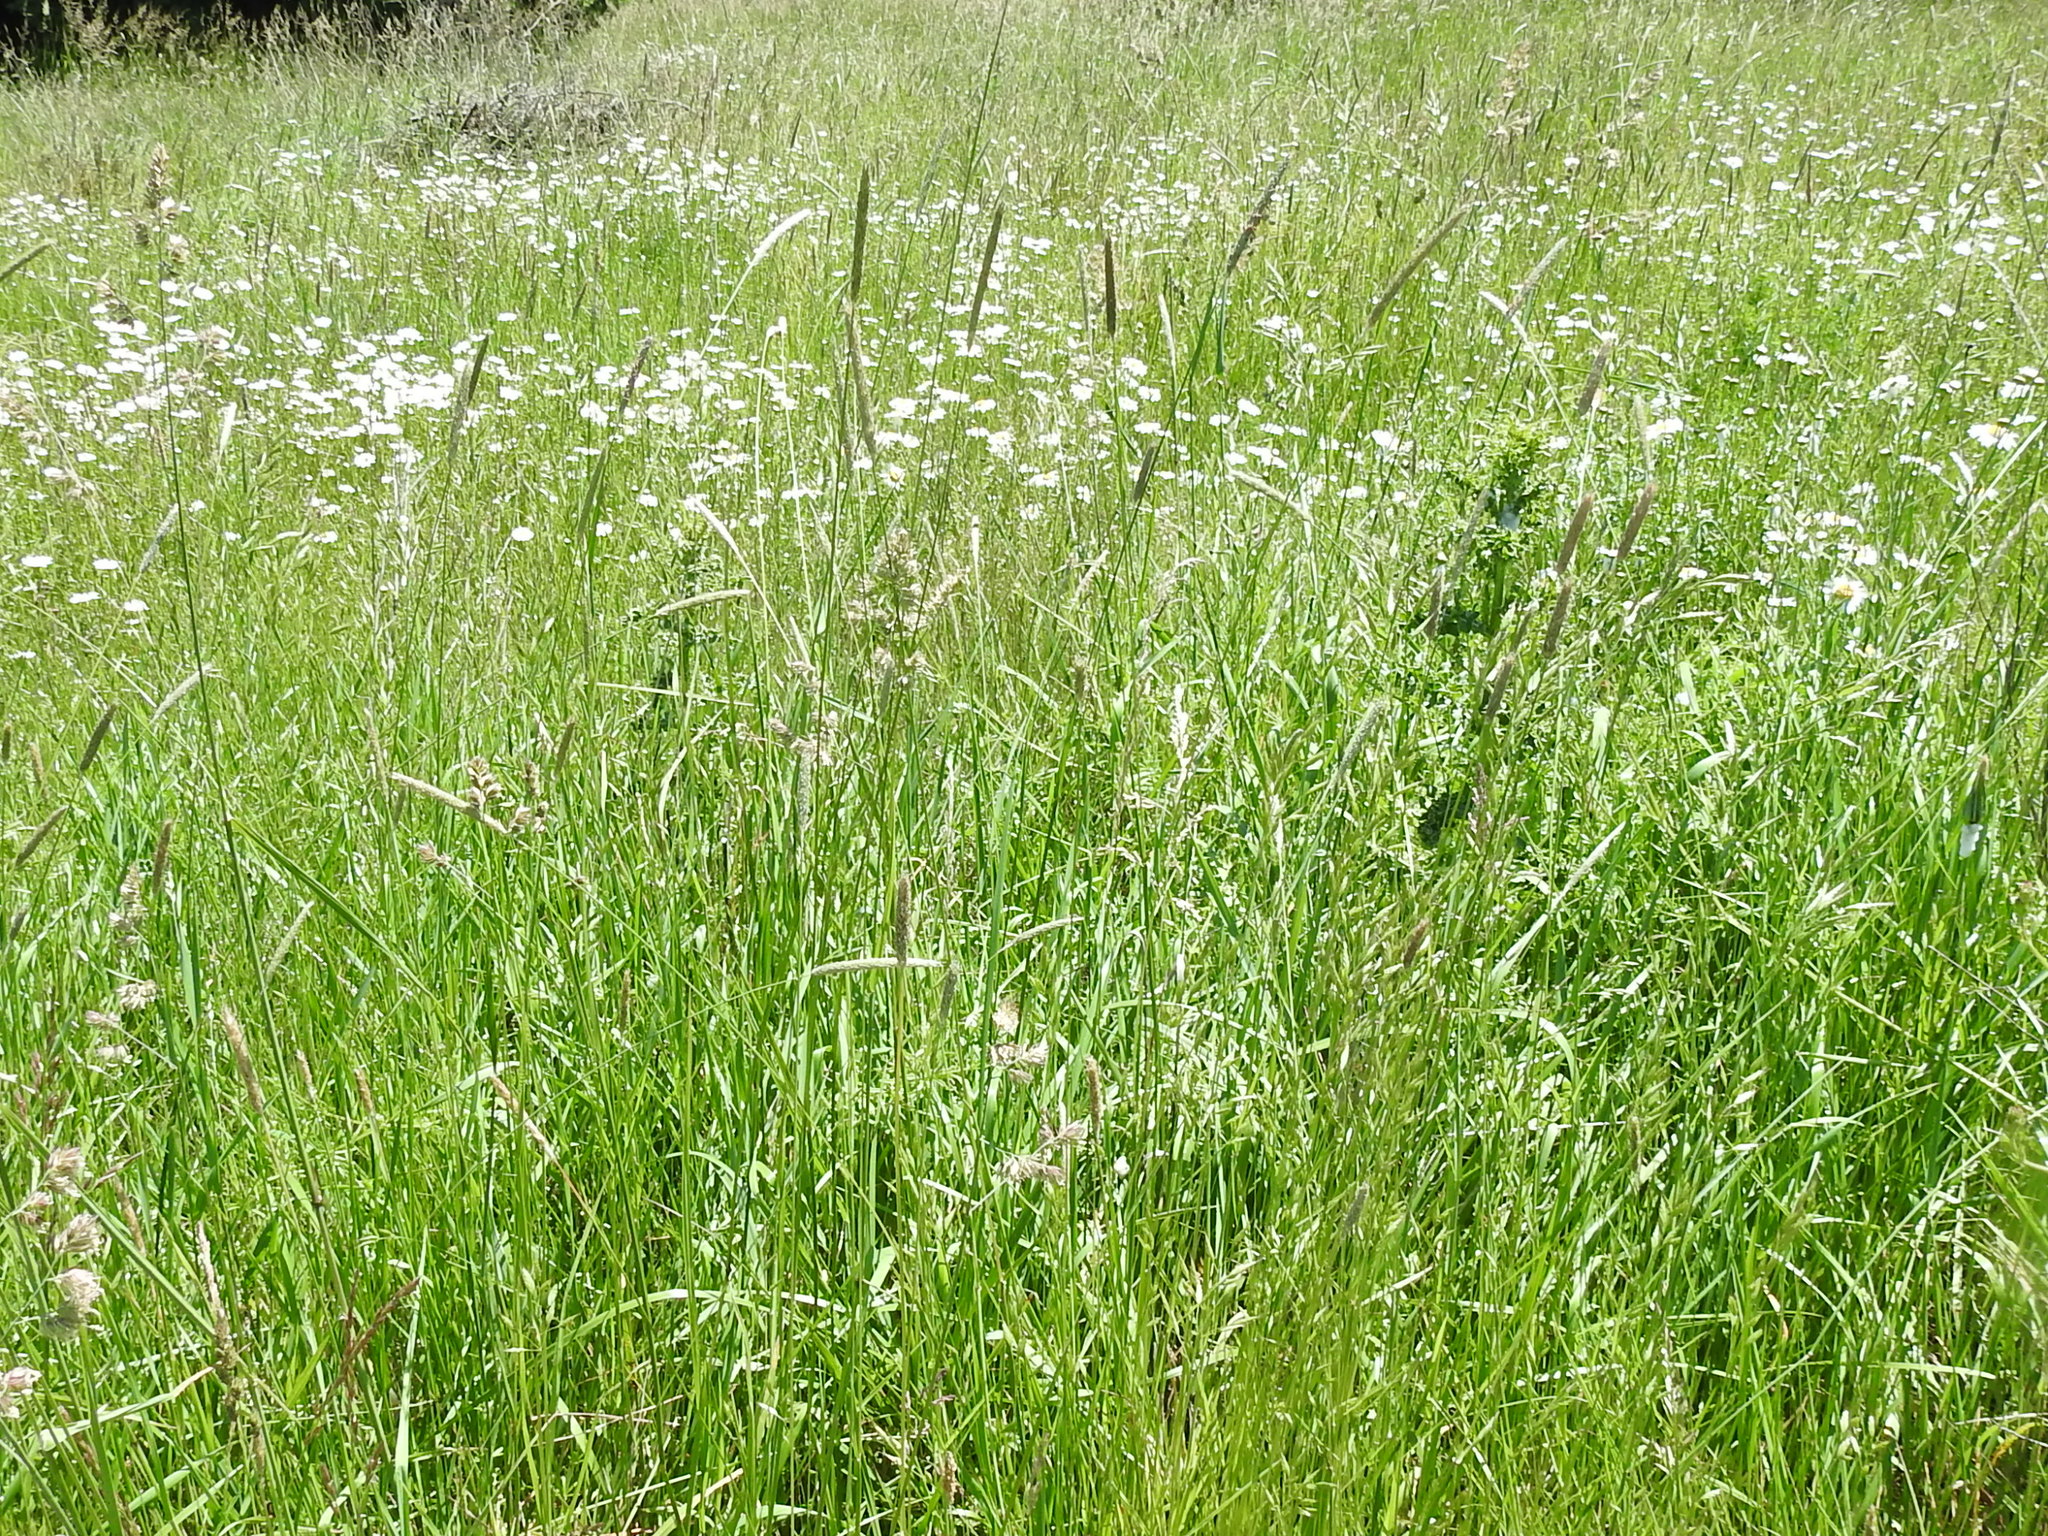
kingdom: Plantae
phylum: Tracheophyta
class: Liliopsida
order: Poales
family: Poaceae
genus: Alopecurus
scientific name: Alopecurus pratensis
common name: Meadow foxtail
